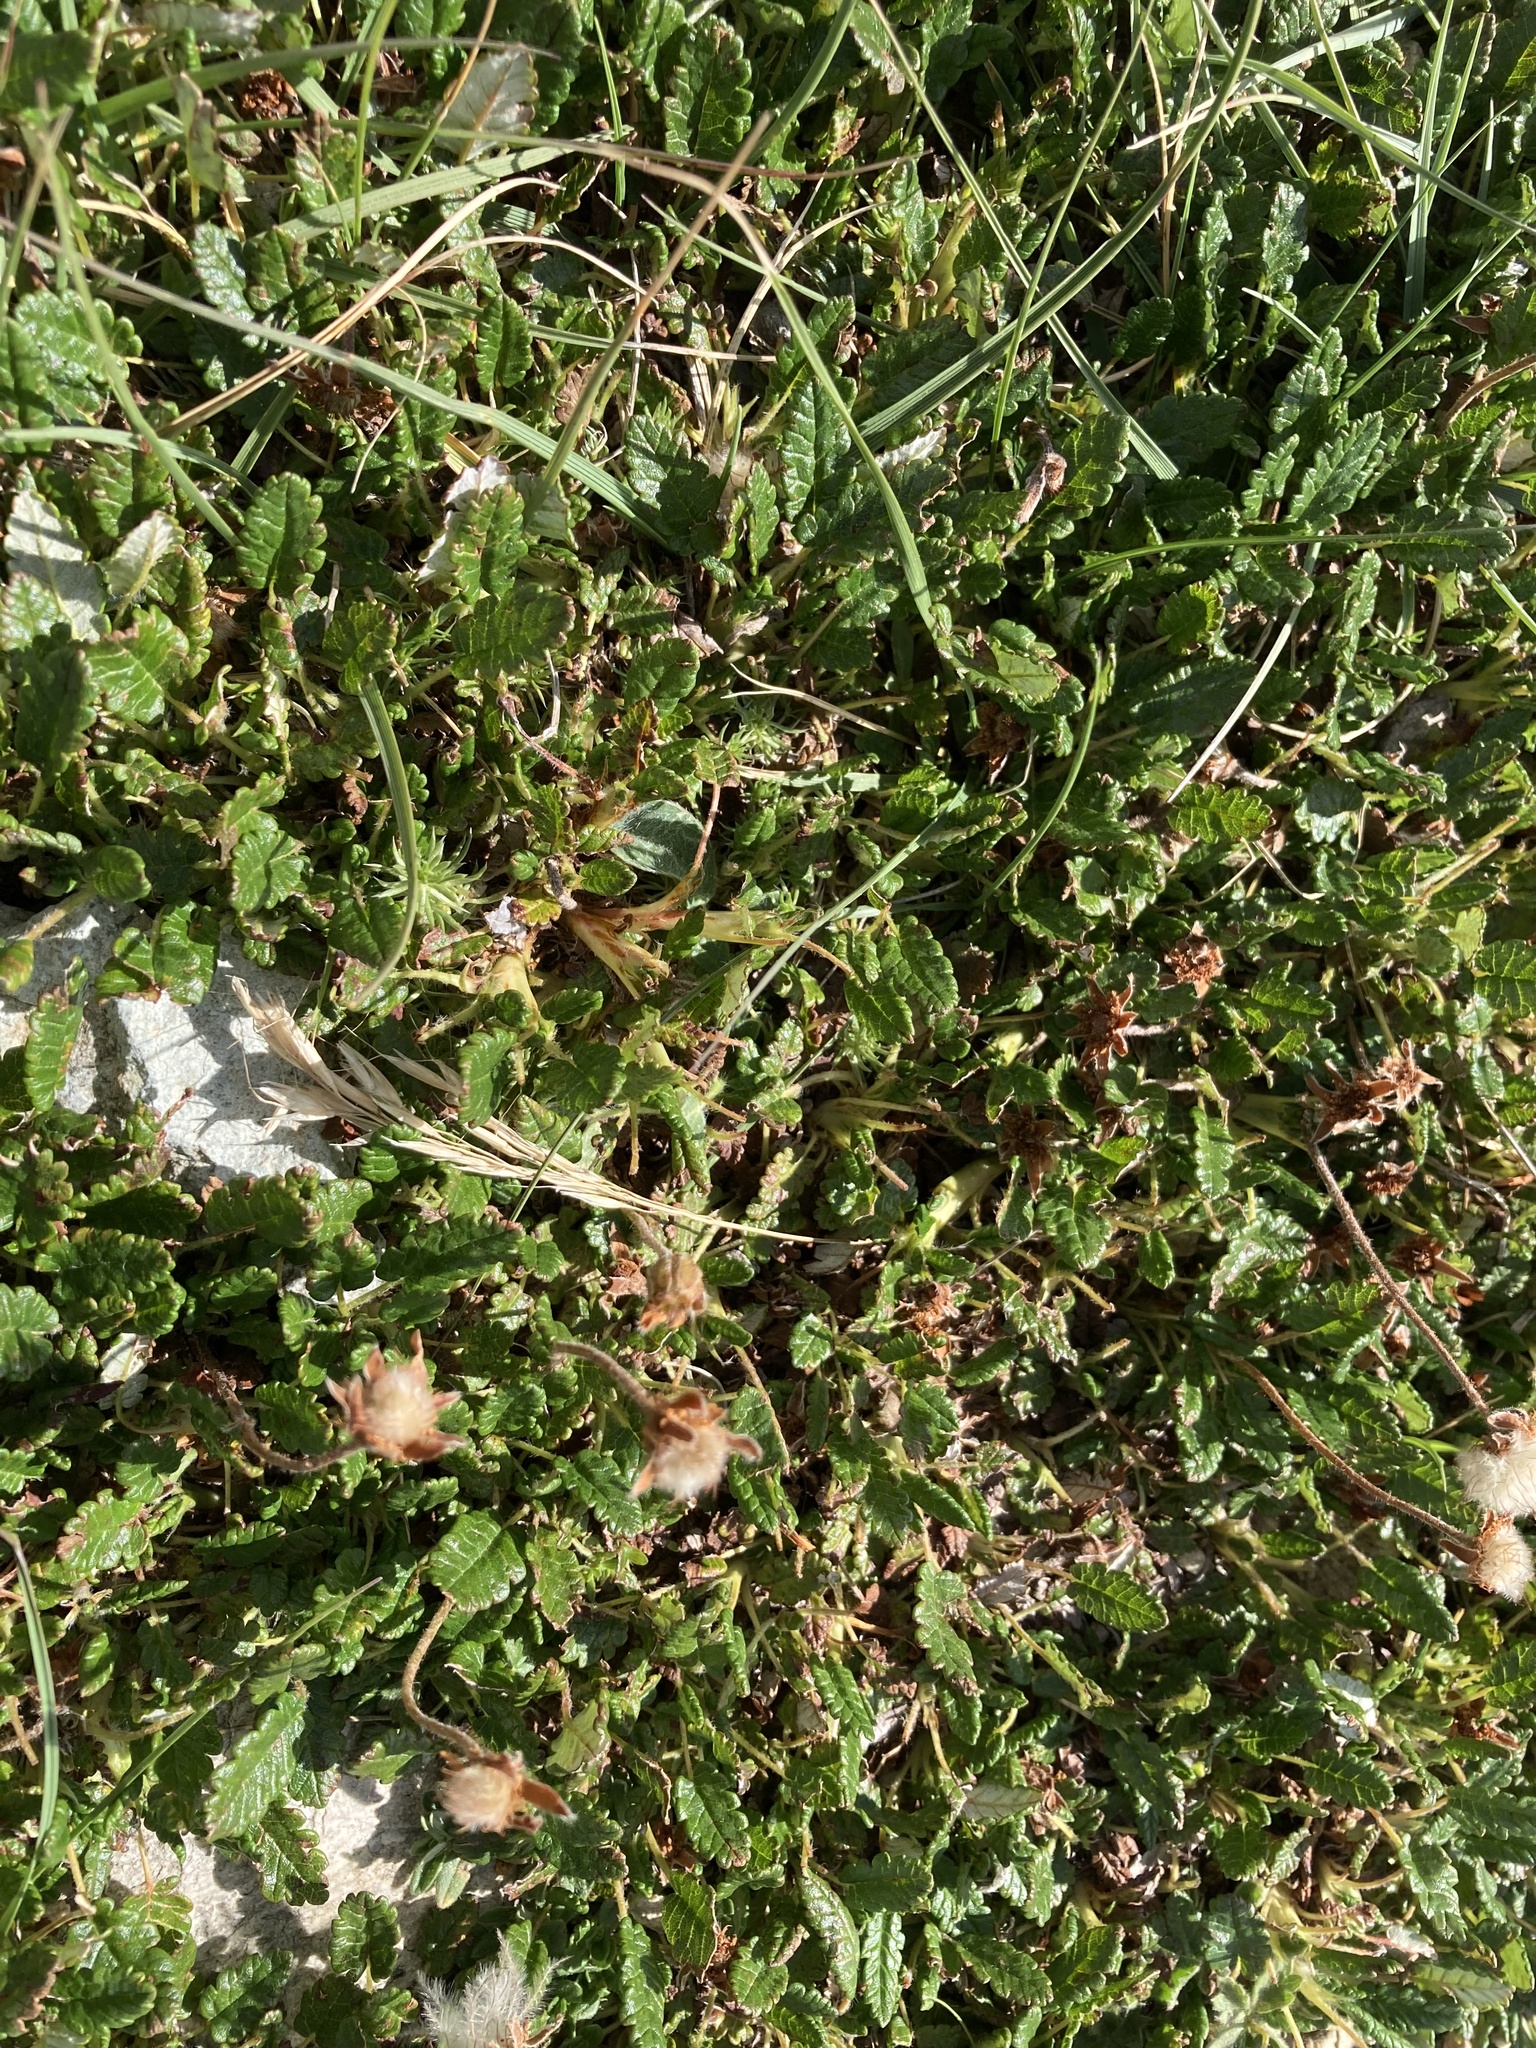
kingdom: Plantae
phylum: Tracheophyta
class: Magnoliopsida
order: Rosales
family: Rosaceae
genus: Dryas
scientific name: Dryas octopetala
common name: Eight-petal mountain-avens
